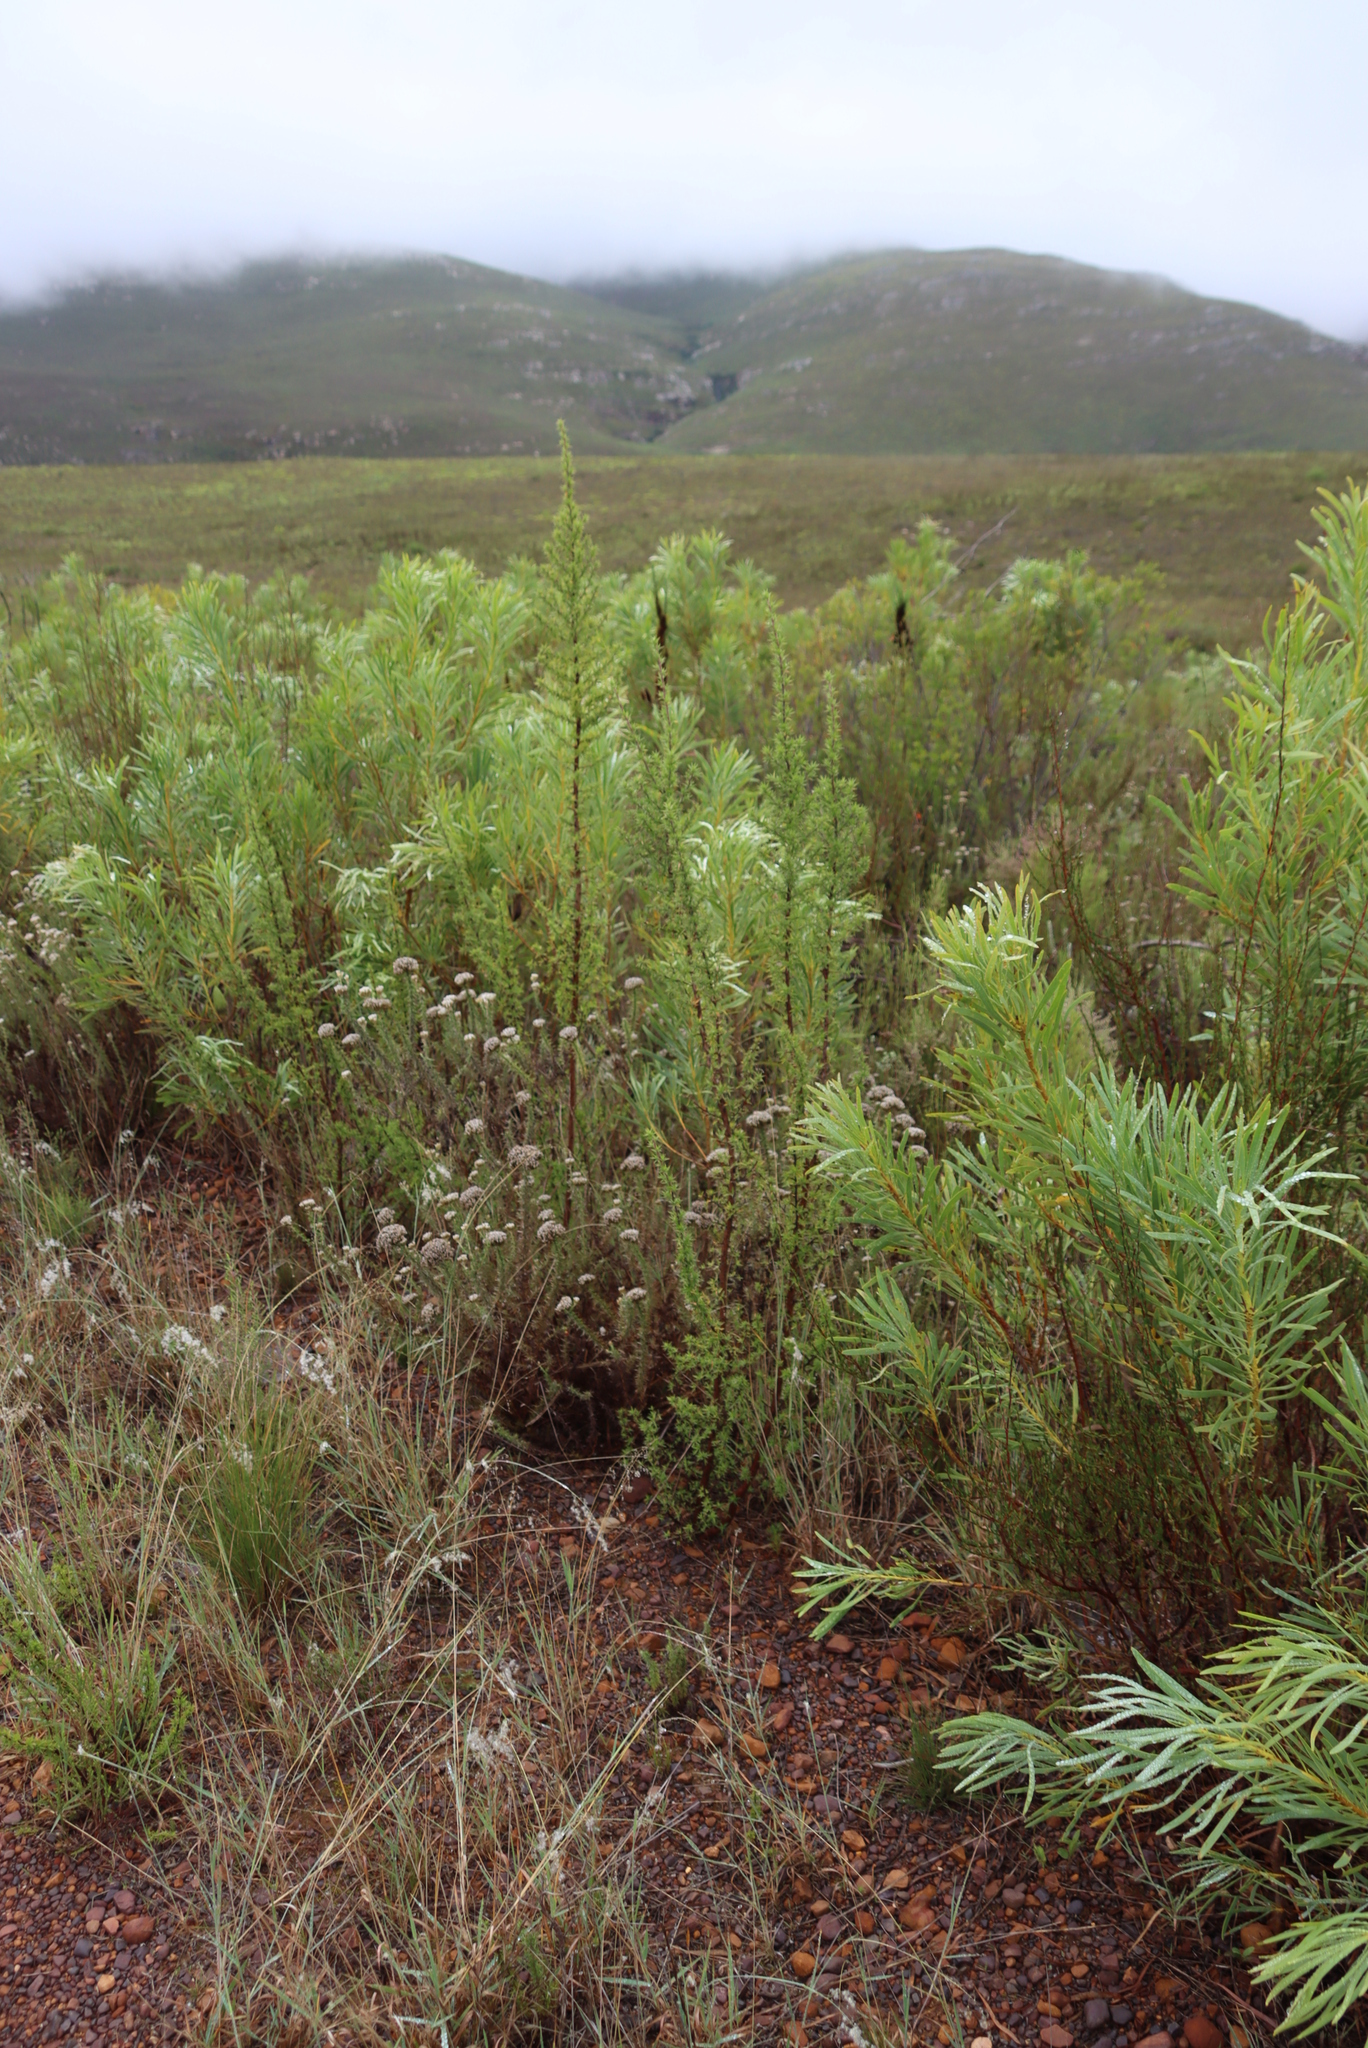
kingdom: Plantae
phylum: Tracheophyta
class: Magnoliopsida
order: Proteales
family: Proteaceae
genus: Protea
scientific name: Protea repens
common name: Sugarbush
